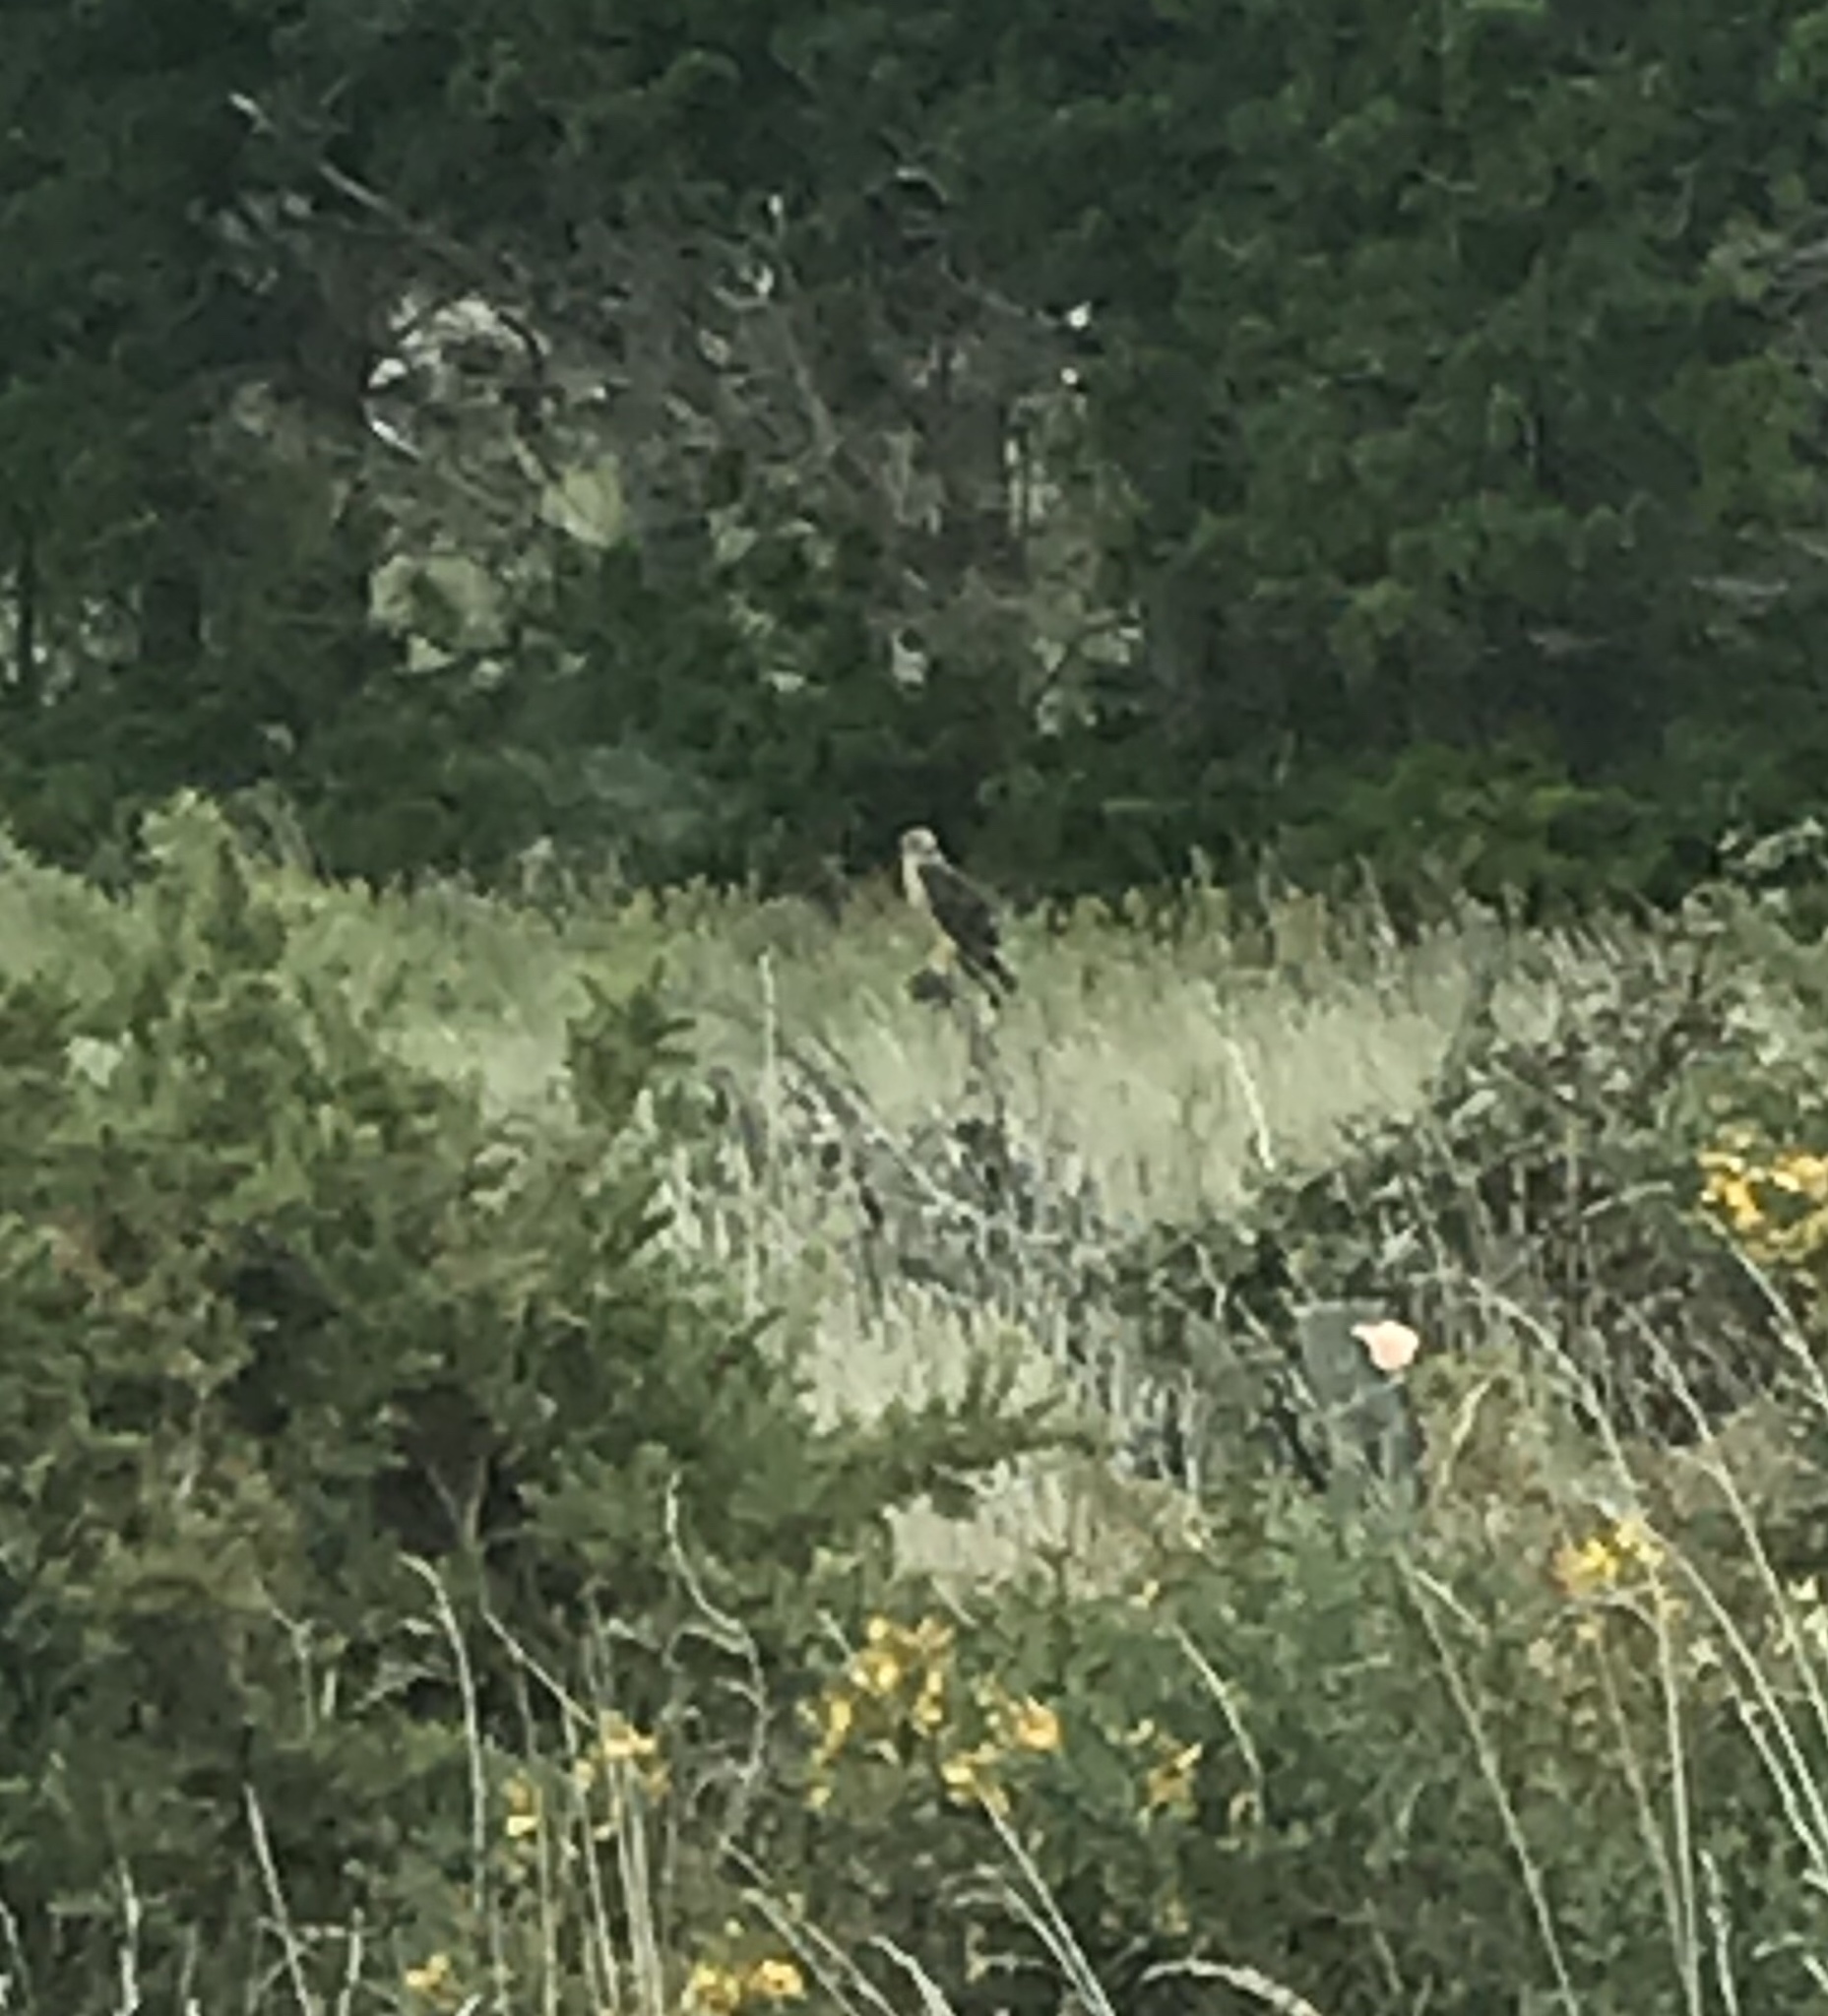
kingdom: Animalia
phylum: Chordata
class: Aves
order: Accipitriformes
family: Accipitridae
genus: Circus
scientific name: Circus approximans
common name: Swamp harrier
